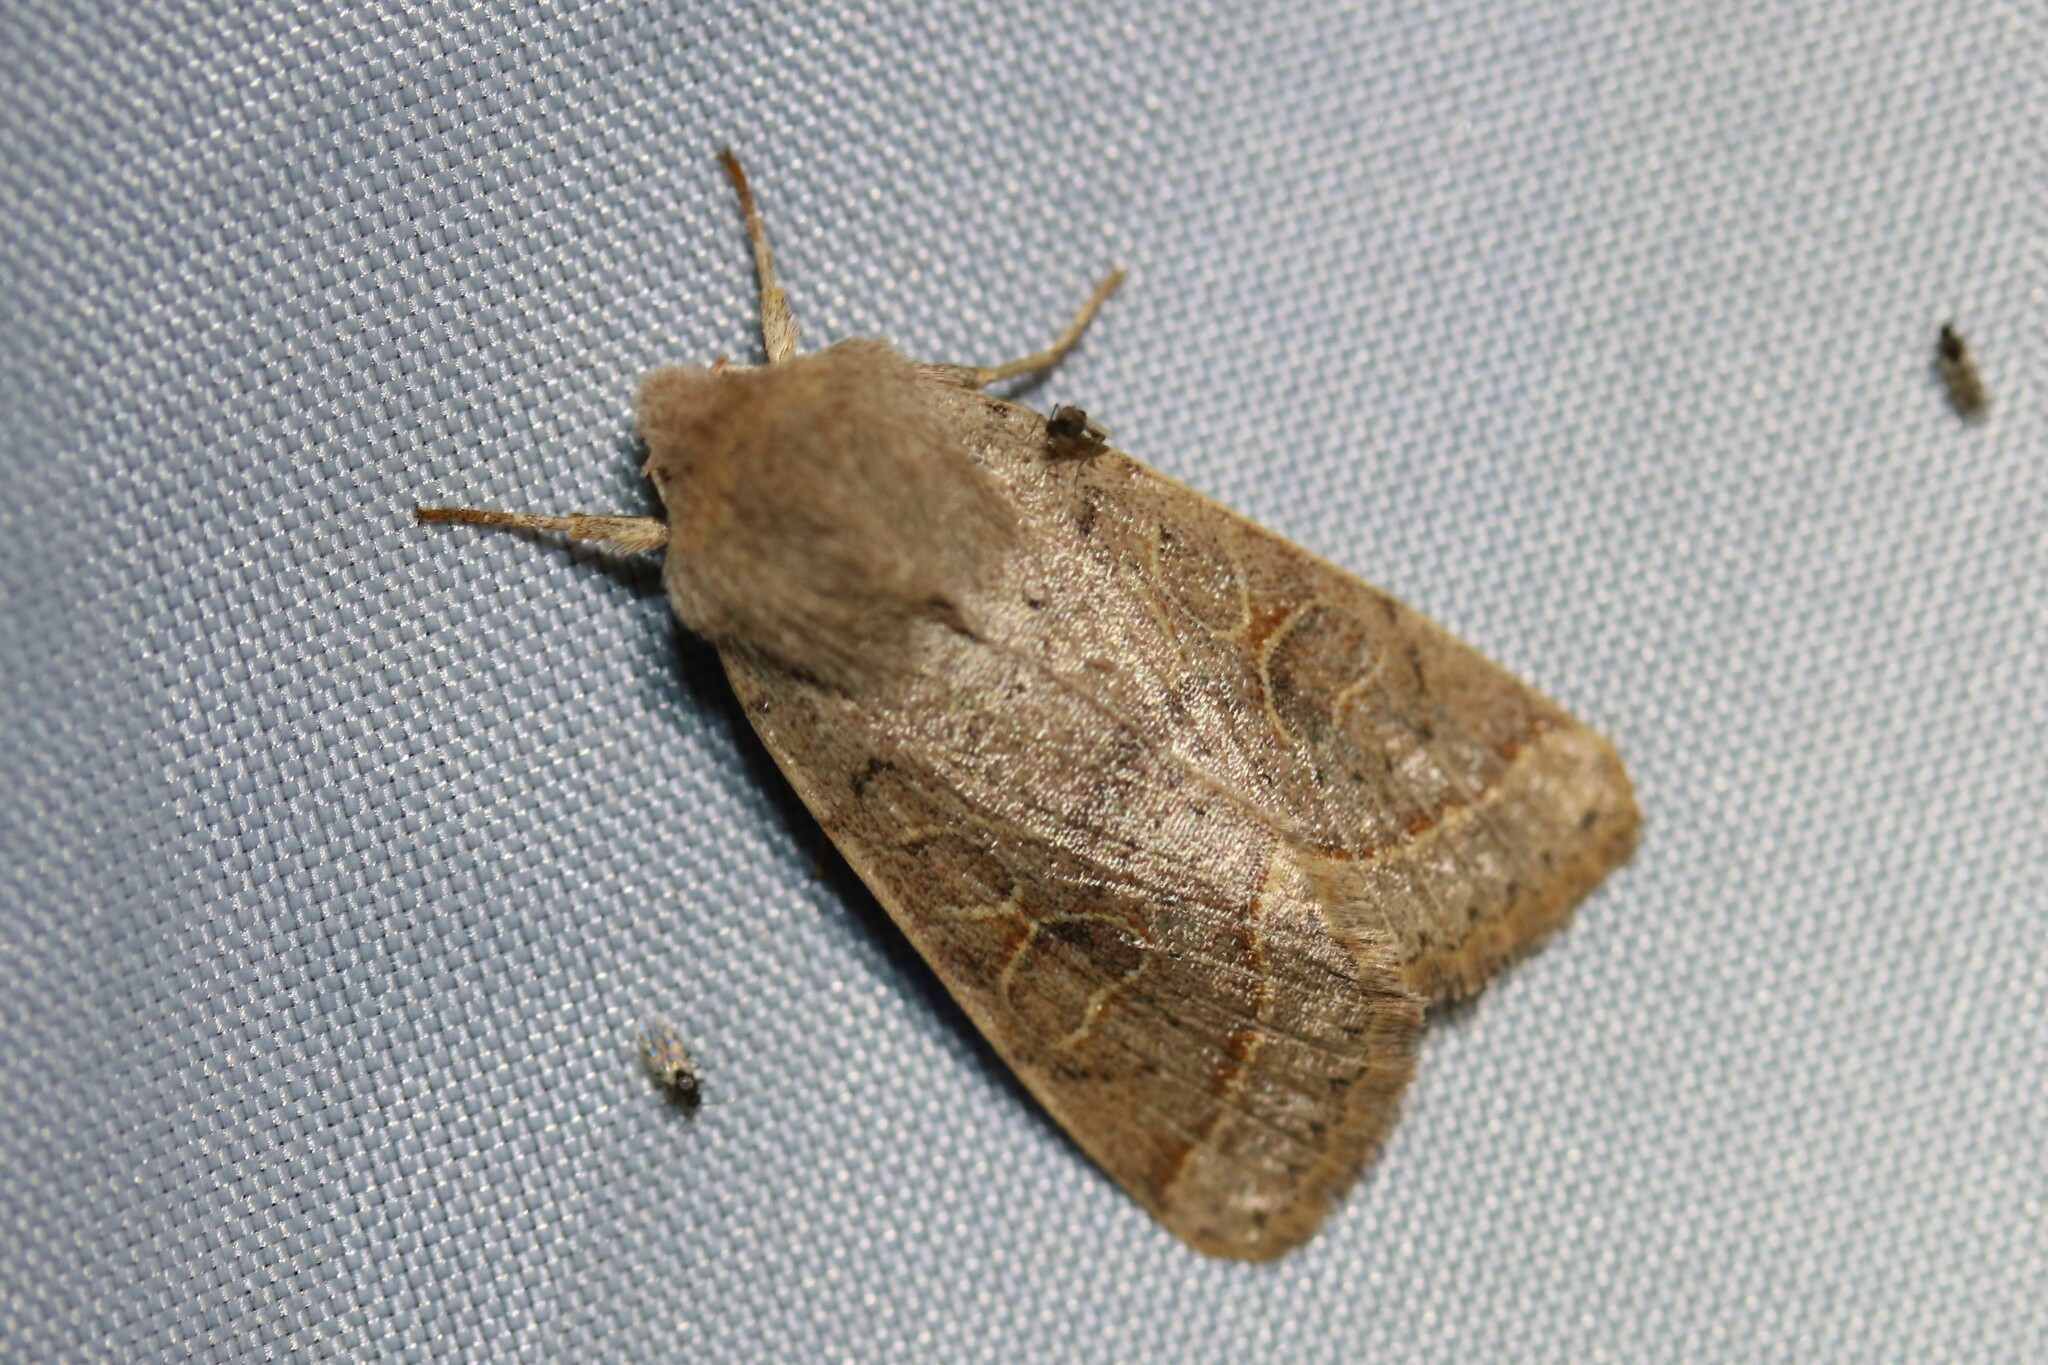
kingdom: Animalia
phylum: Arthropoda
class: Insecta
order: Lepidoptera
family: Noctuidae
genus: Orthosia
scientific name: Orthosia cerasi
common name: Common quaker
